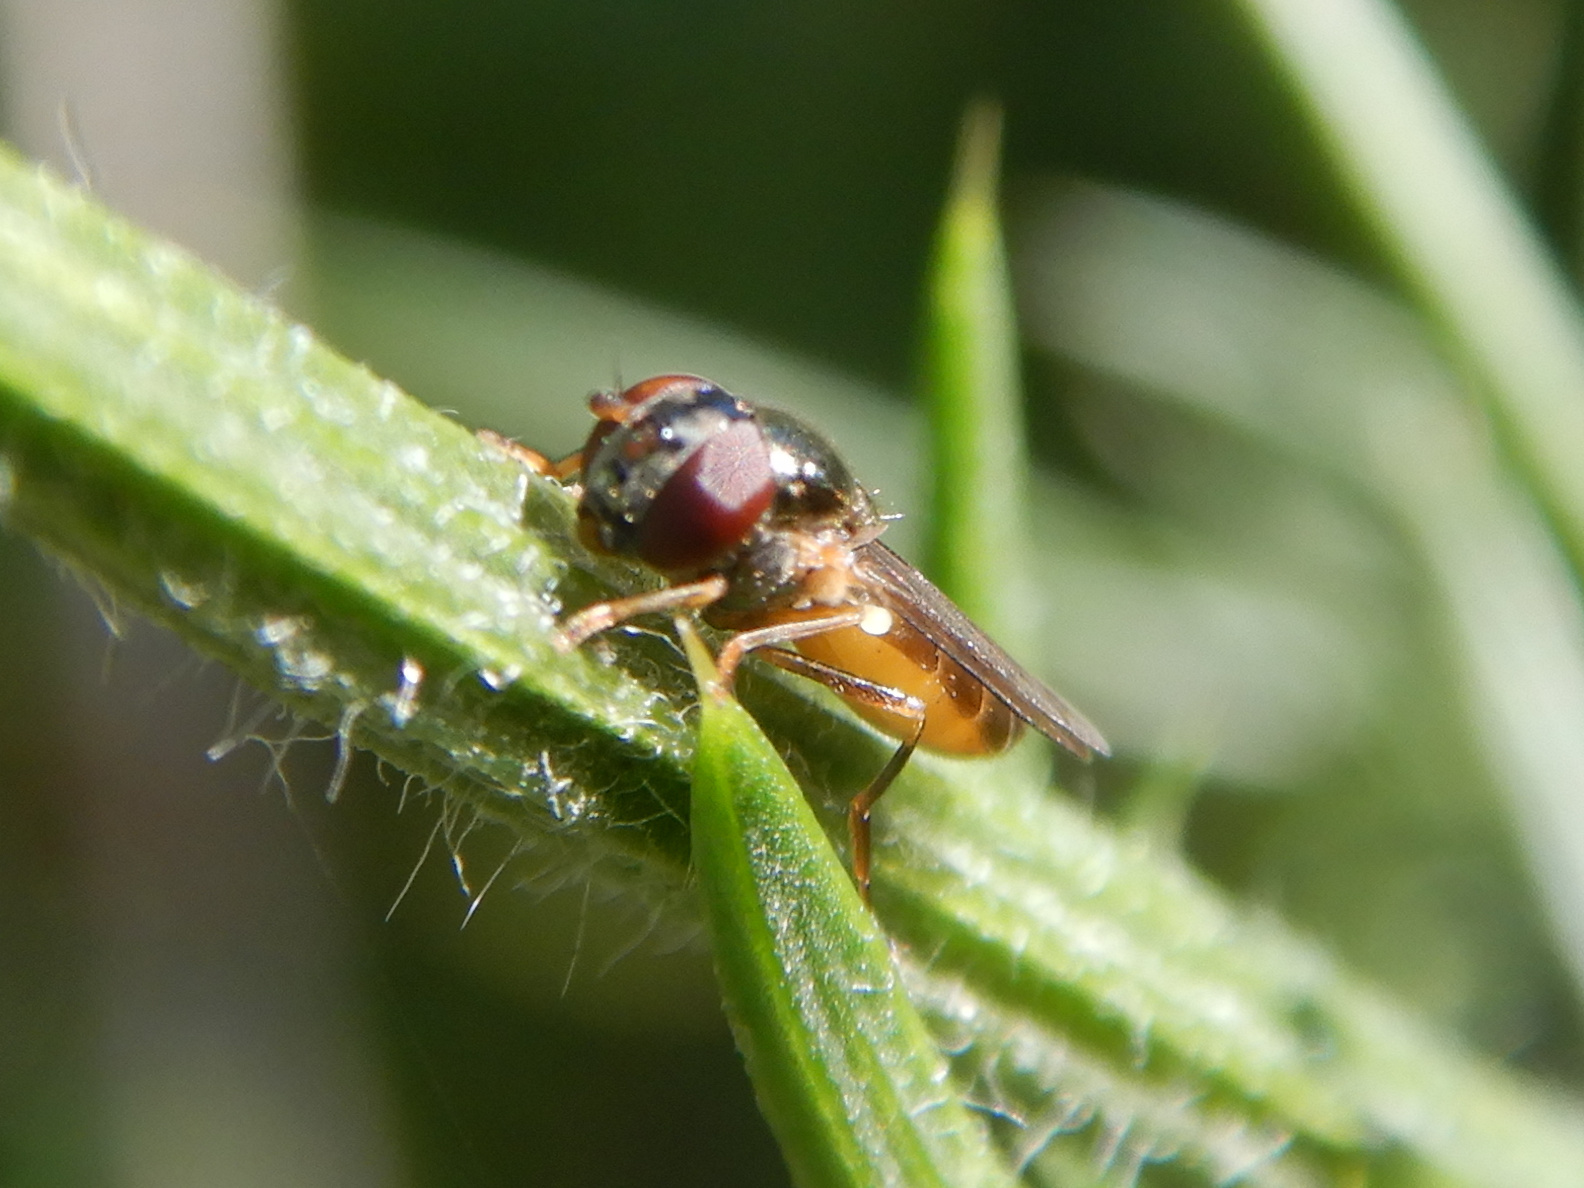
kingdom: Animalia
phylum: Arthropoda
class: Insecta
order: Diptera
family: Syrphidae
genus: Melanostoma
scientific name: Melanostoma fasciatum
